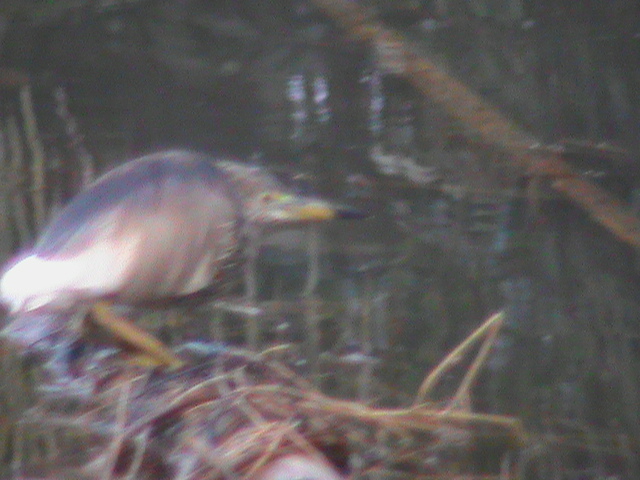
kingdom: Animalia
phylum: Chordata
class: Aves
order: Pelecaniformes
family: Ardeidae
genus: Ardeola
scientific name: Ardeola grayii
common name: Indian pond heron
